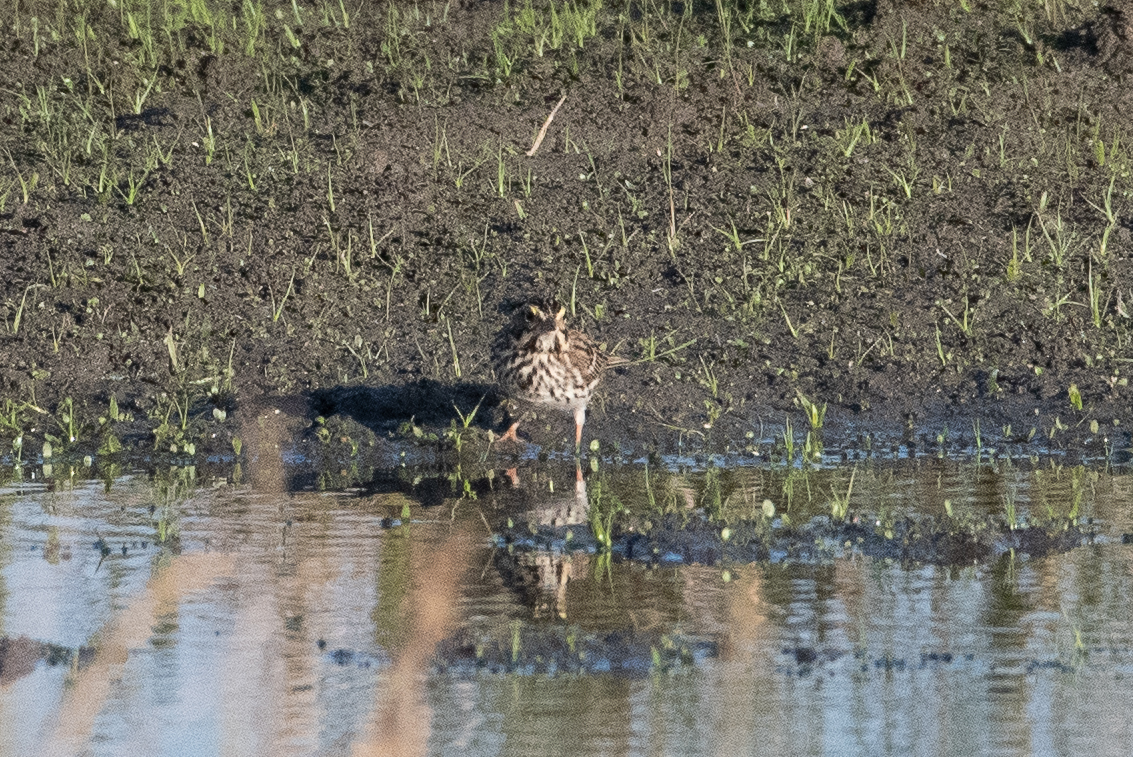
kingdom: Animalia
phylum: Chordata
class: Aves
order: Passeriformes
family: Passerellidae
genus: Passerculus
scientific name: Passerculus sandwichensis
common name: Savannah sparrow
